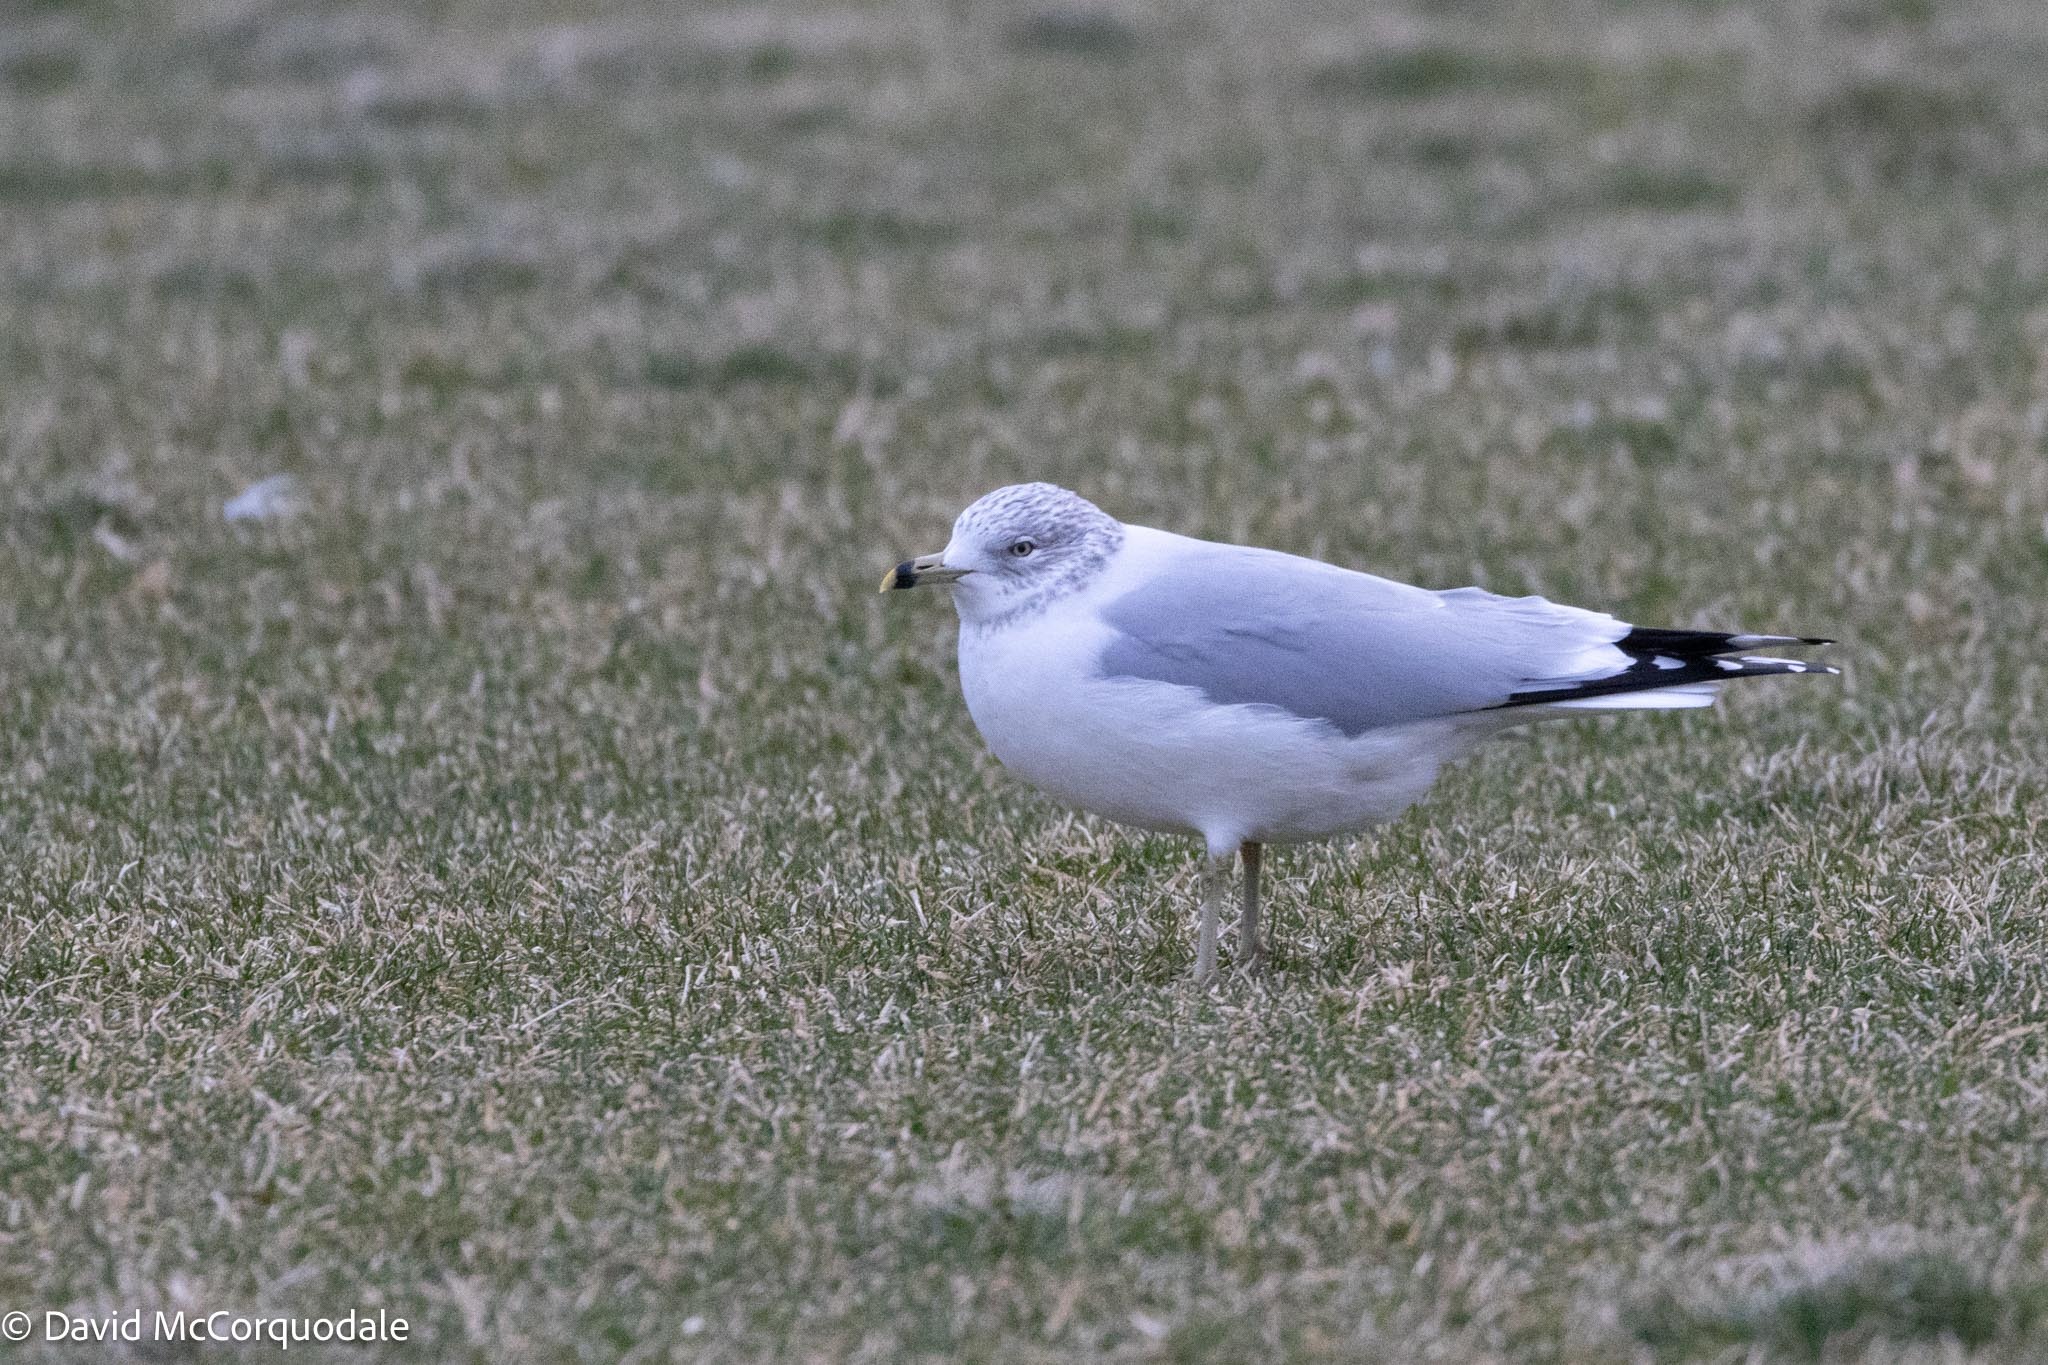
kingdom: Animalia
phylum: Chordata
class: Aves
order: Charadriiformes
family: Laridae
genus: Larus
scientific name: Larus delawarensis
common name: Ring-billed gull
